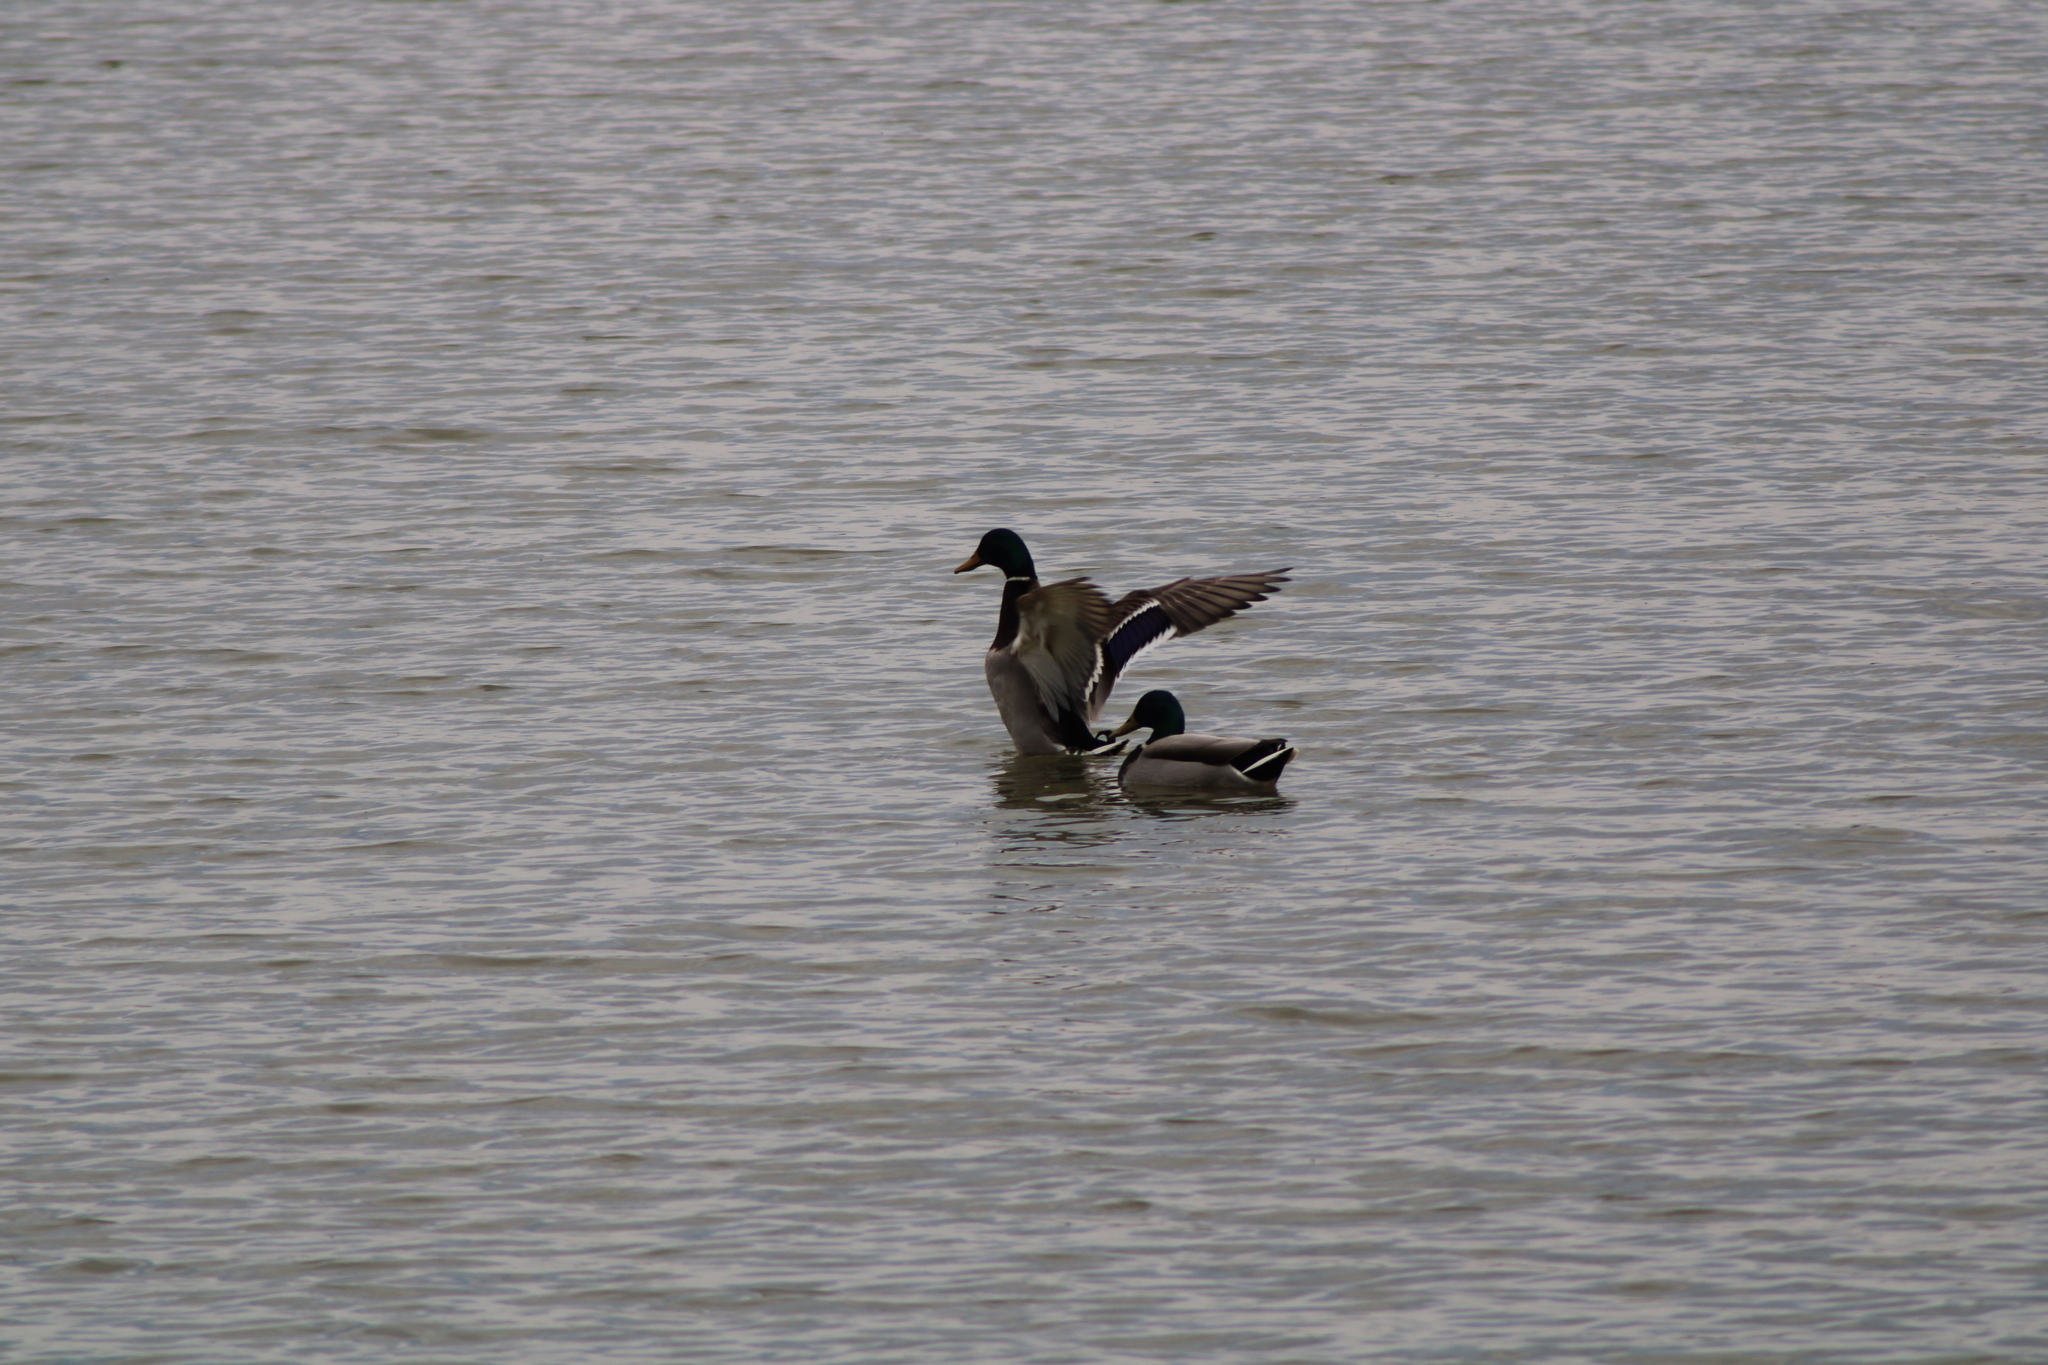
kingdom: Animalia
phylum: Chordata
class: Aves
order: Anseriformes
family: Anatidae
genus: Anas
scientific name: Anas platyrhynchos
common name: Mallard
